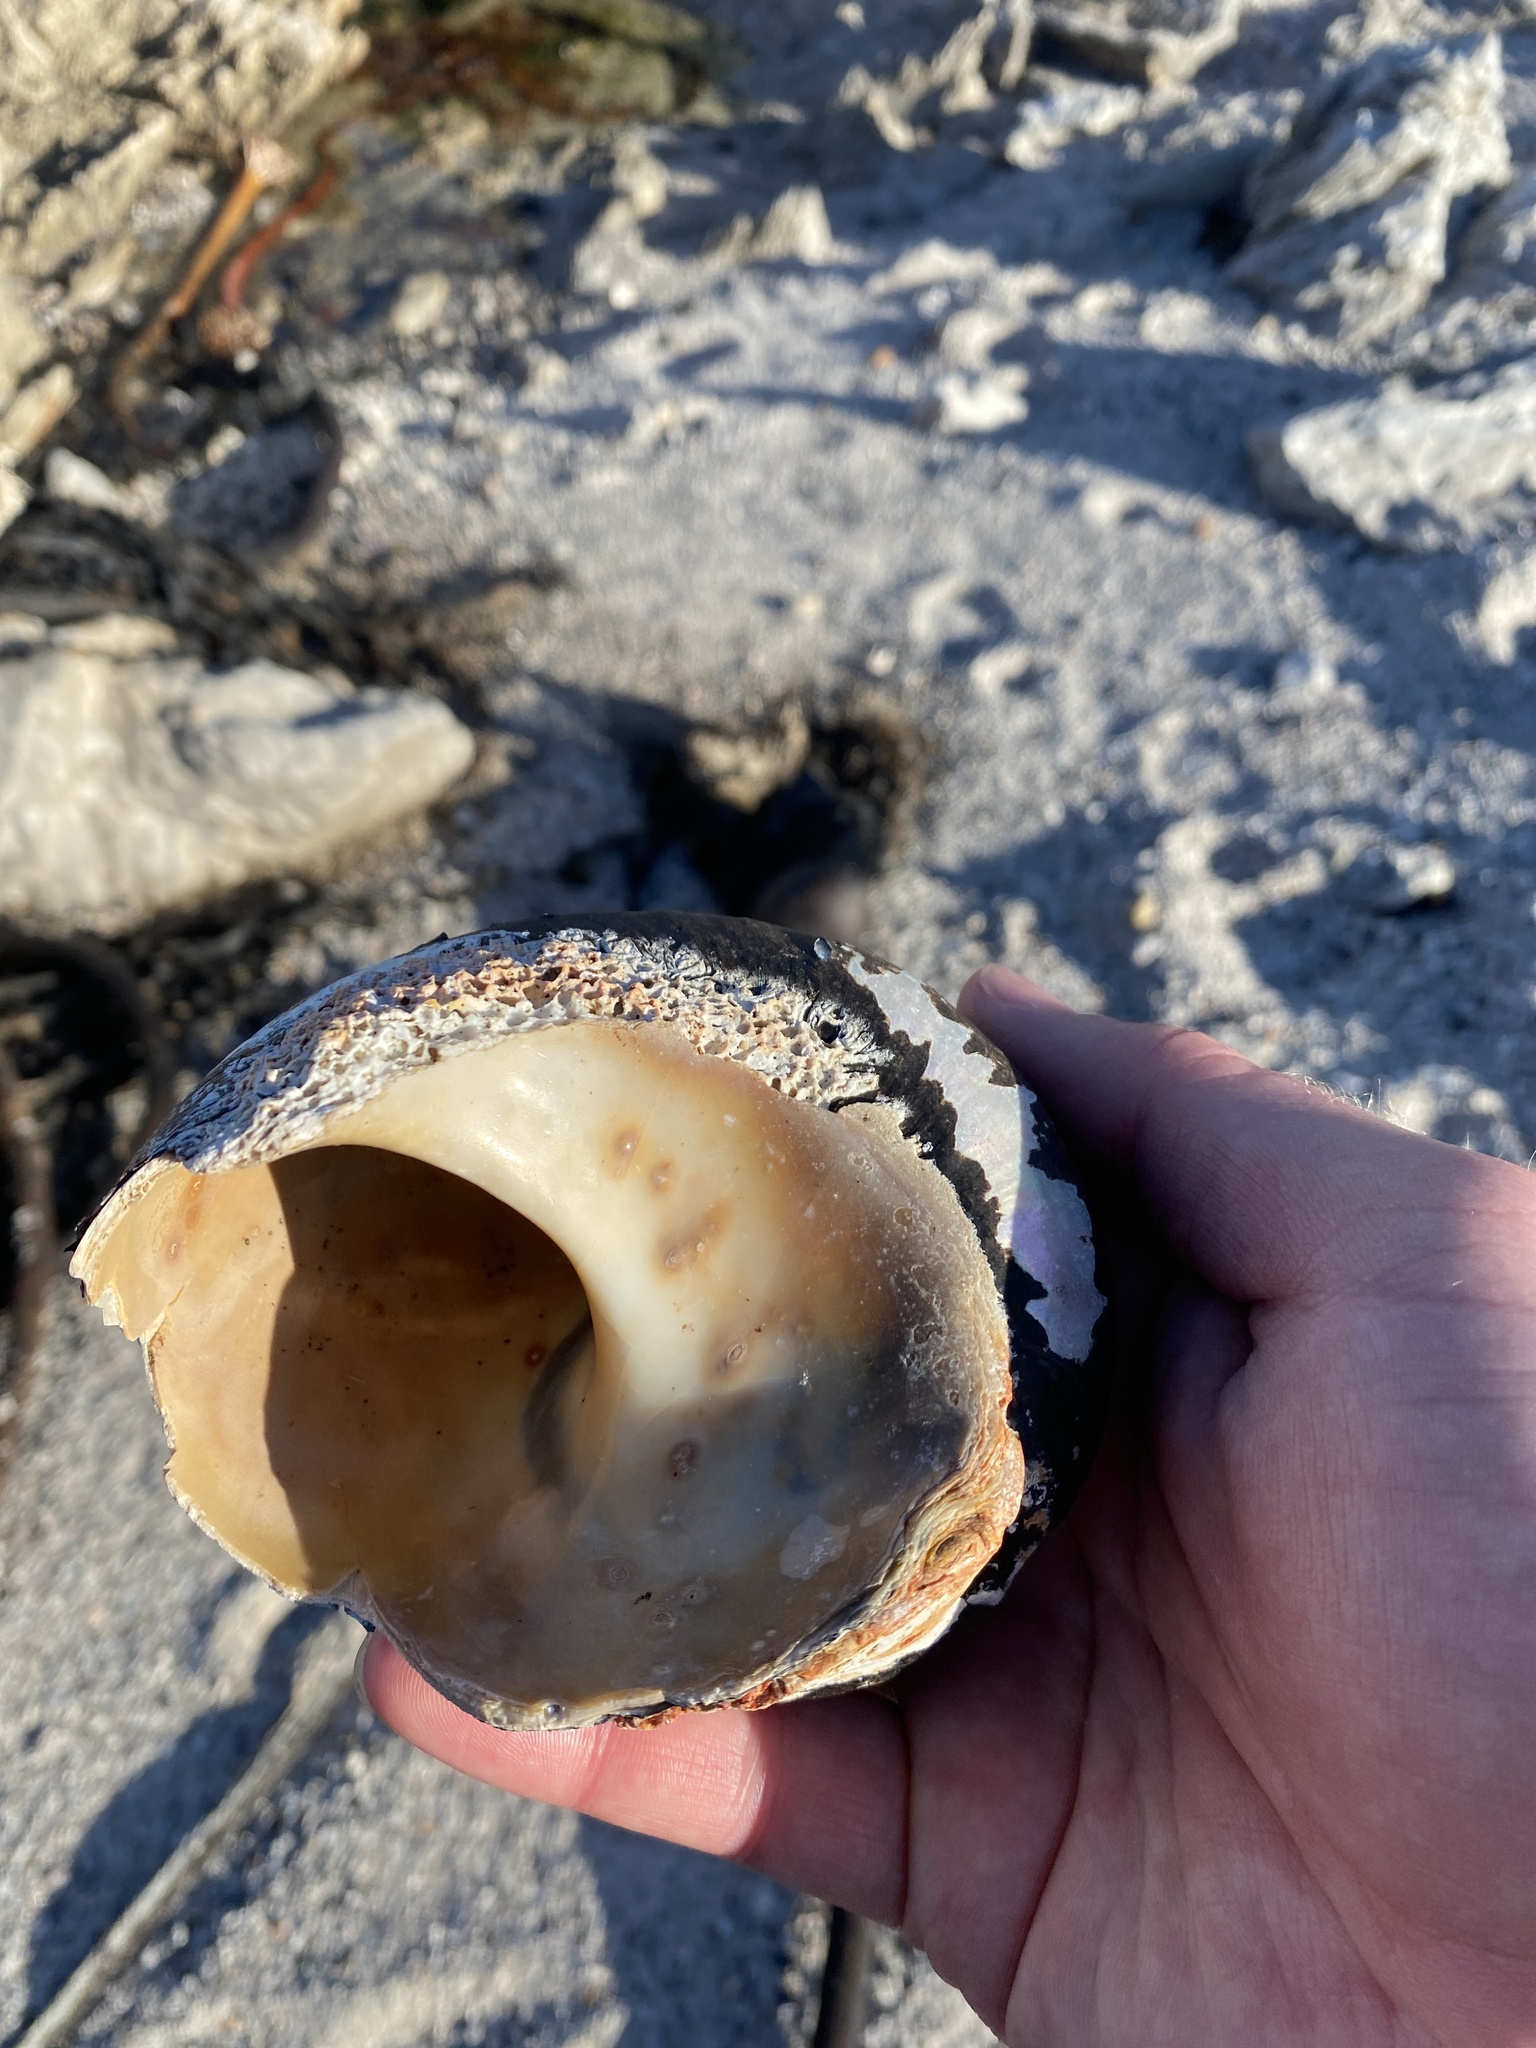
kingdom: Animalia
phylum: Mollusca
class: Gastropoda
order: Trochida
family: Turbinidae
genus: Turbo
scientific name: Turbo sarmaticus
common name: South african turban
